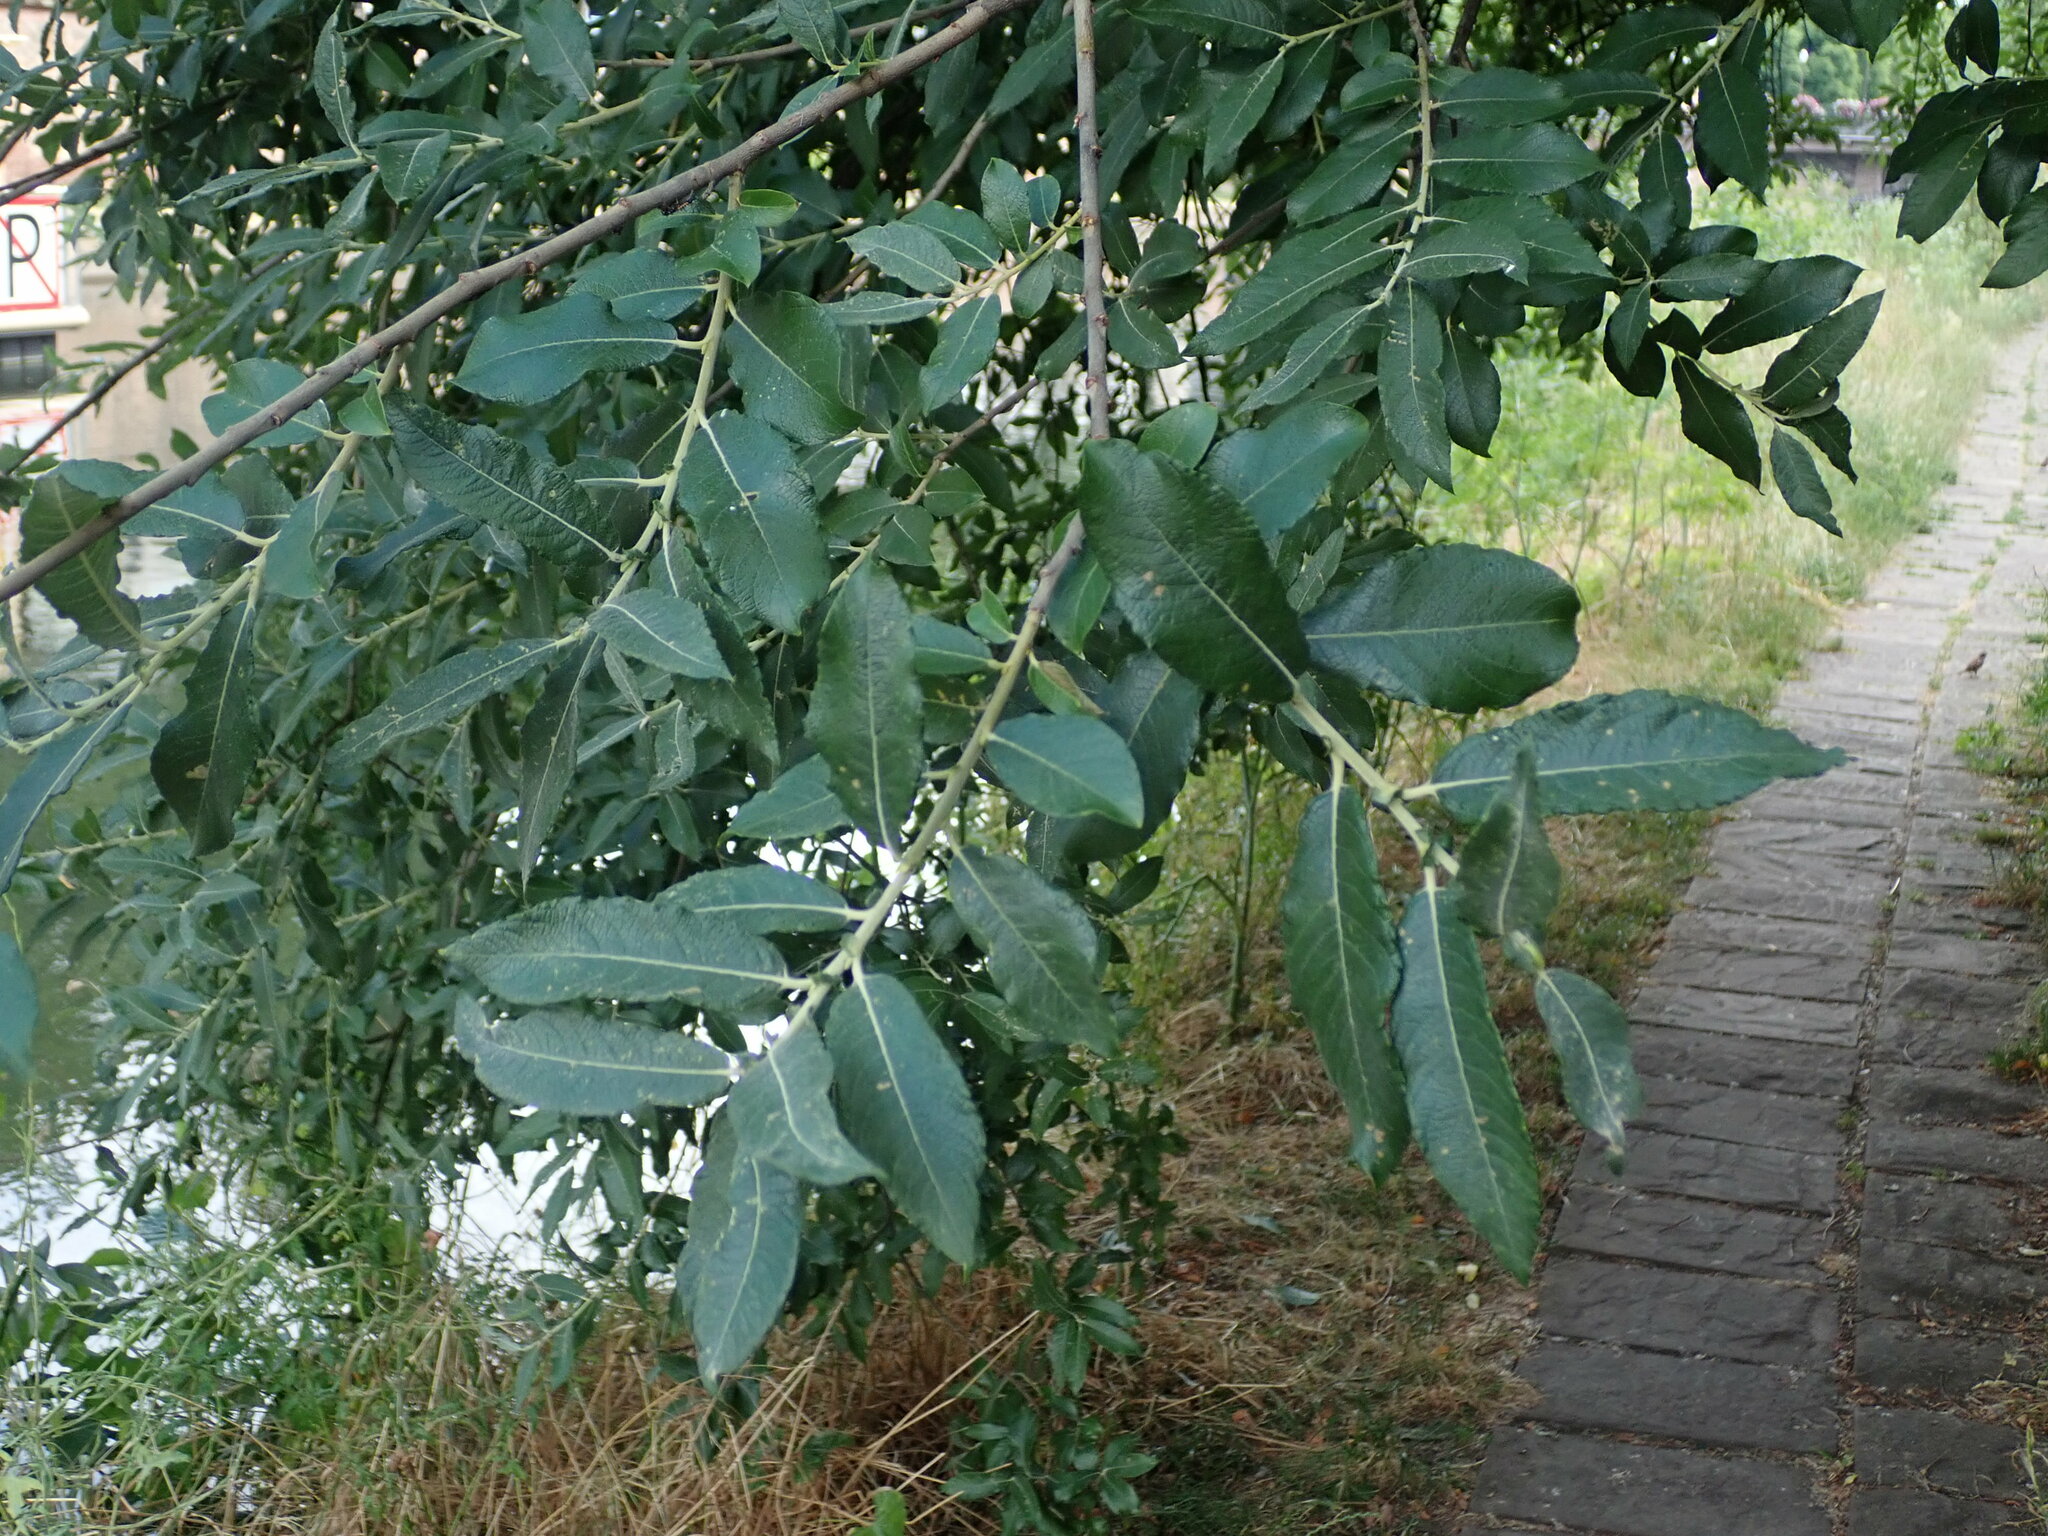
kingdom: Plantae
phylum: Tracheophyta
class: Magnoliopsida
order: Malpighiales
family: Salicaceae
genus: Salix
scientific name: Salix cinerea
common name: Common sallow
